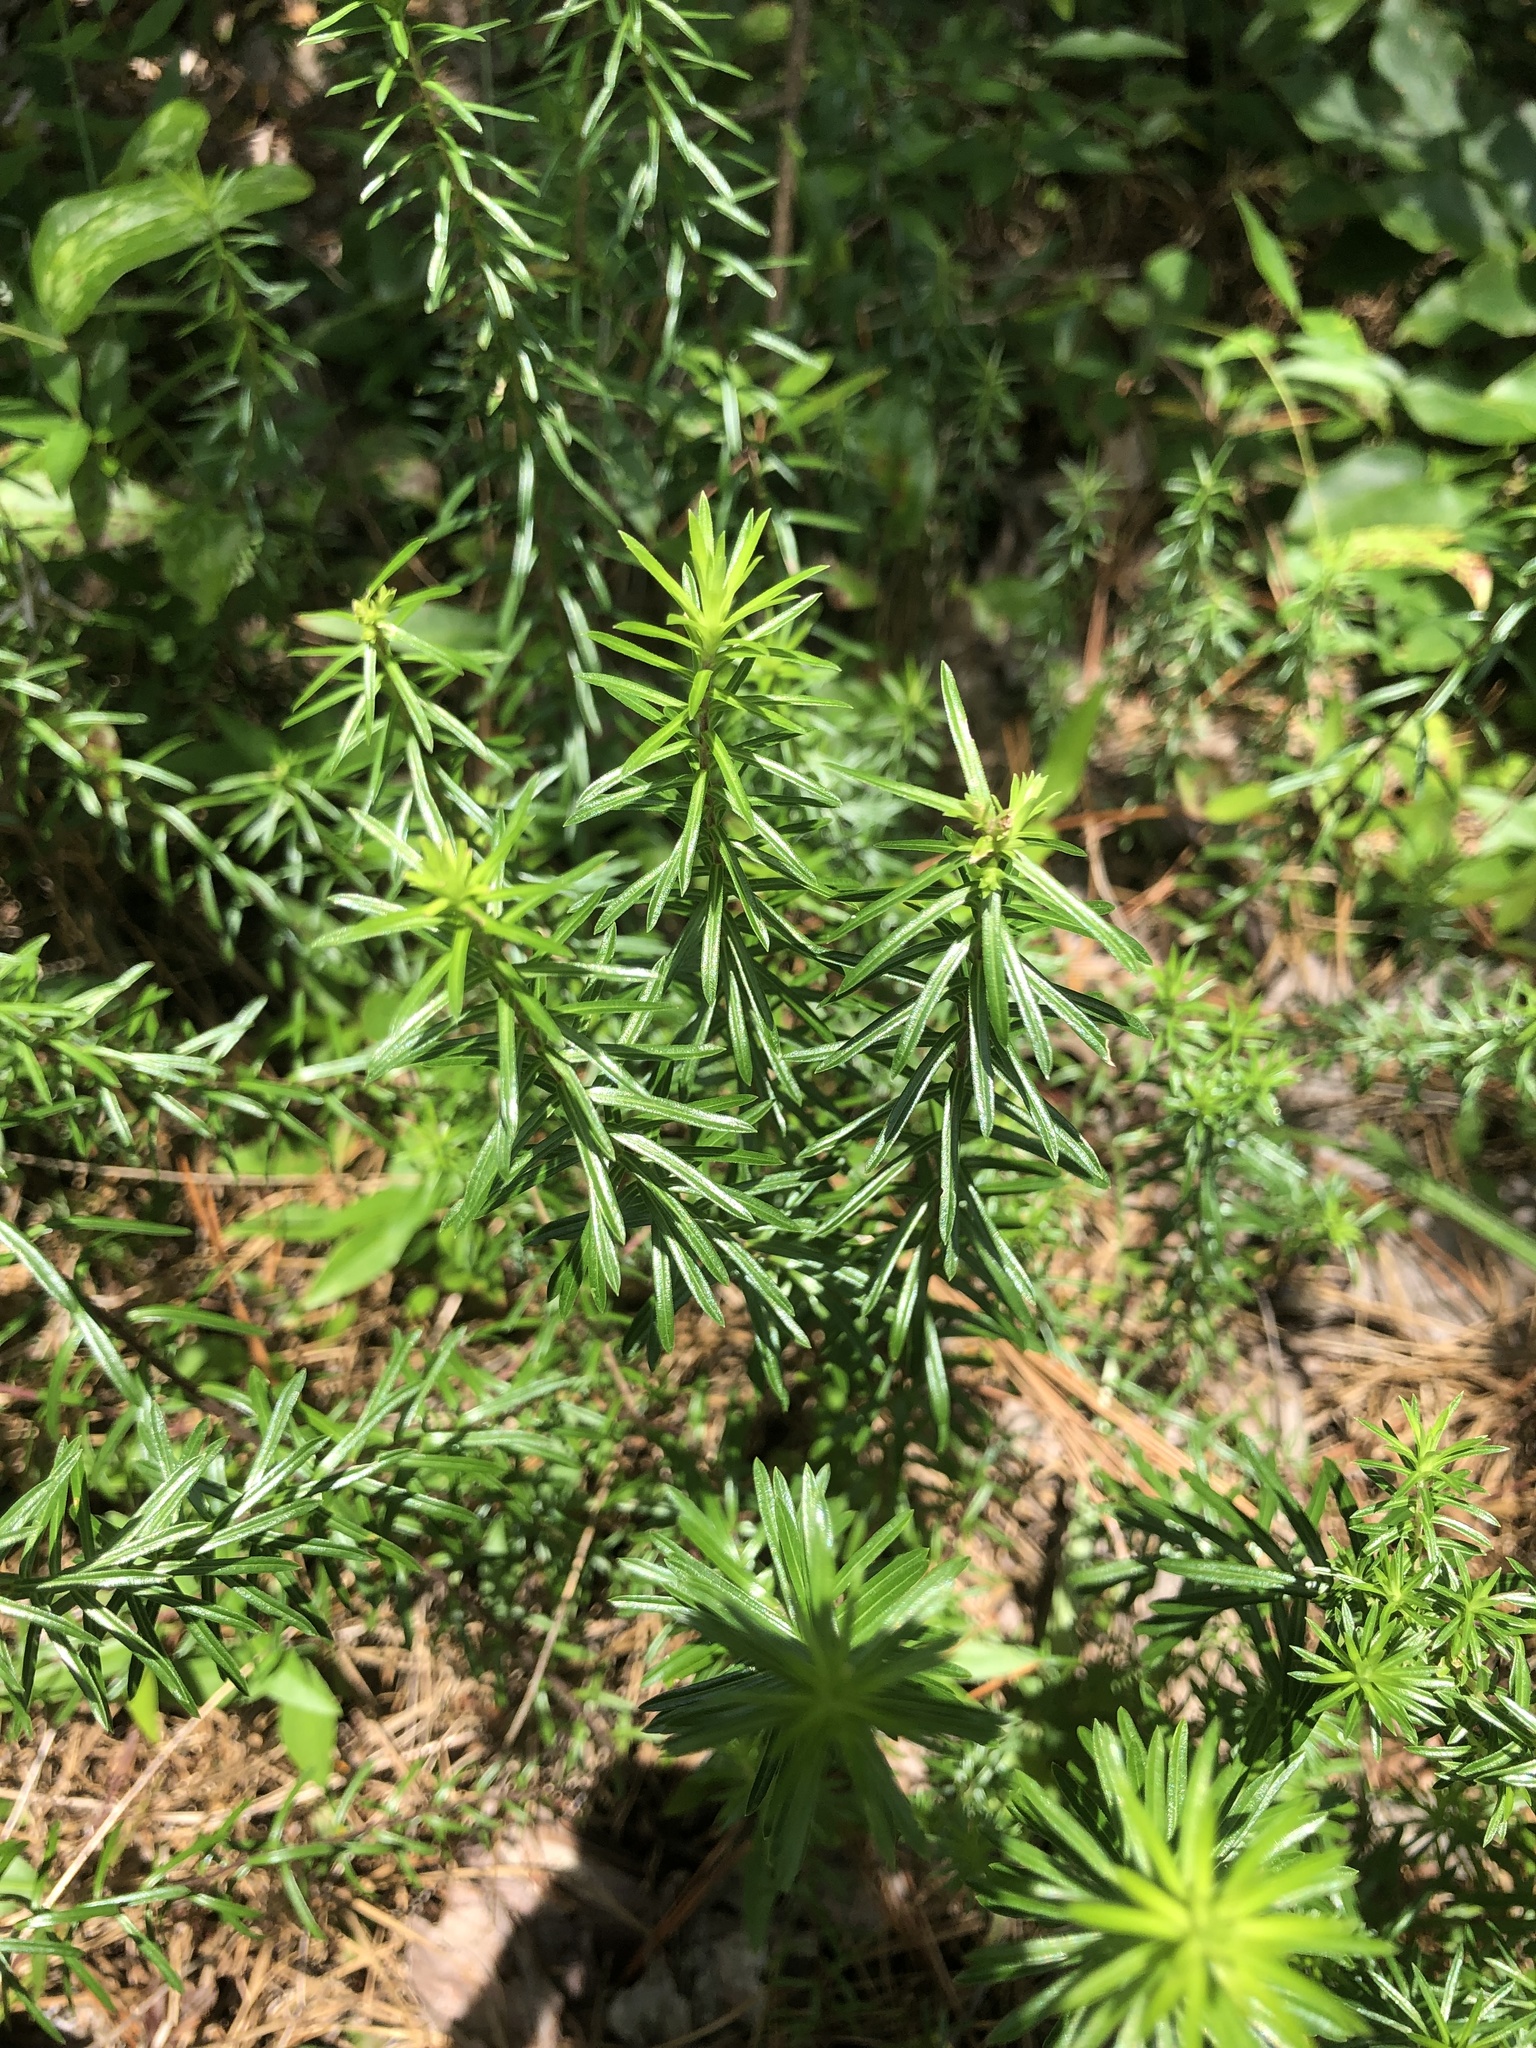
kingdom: Plantae
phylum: Tracheophyta
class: Magnoliopsida
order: Asterales
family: Asteraceae
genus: Ionactis
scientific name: Ionactis repens
